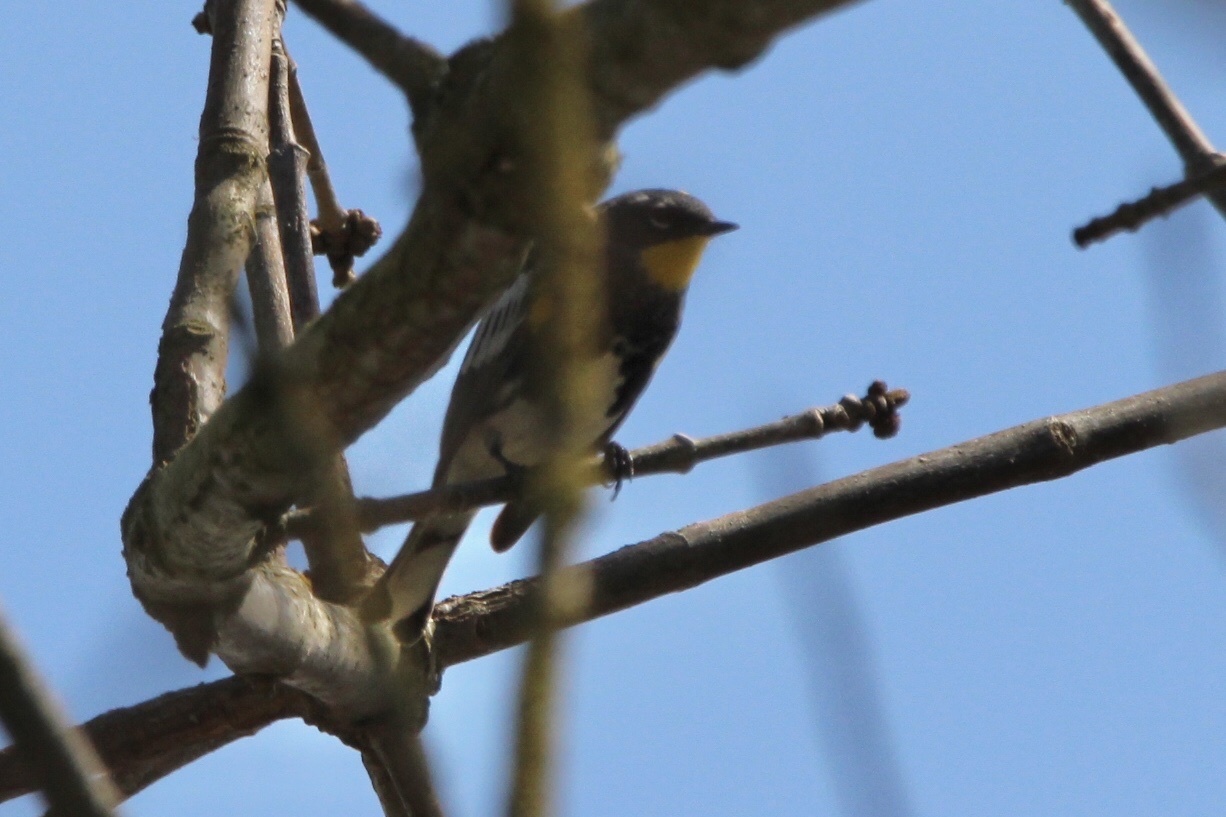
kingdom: Animalia
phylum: Chordata
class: Aves
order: Passeriformes
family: Parulidae
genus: Setophaga
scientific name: Setophaga auduboni
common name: Audubon's warbler
